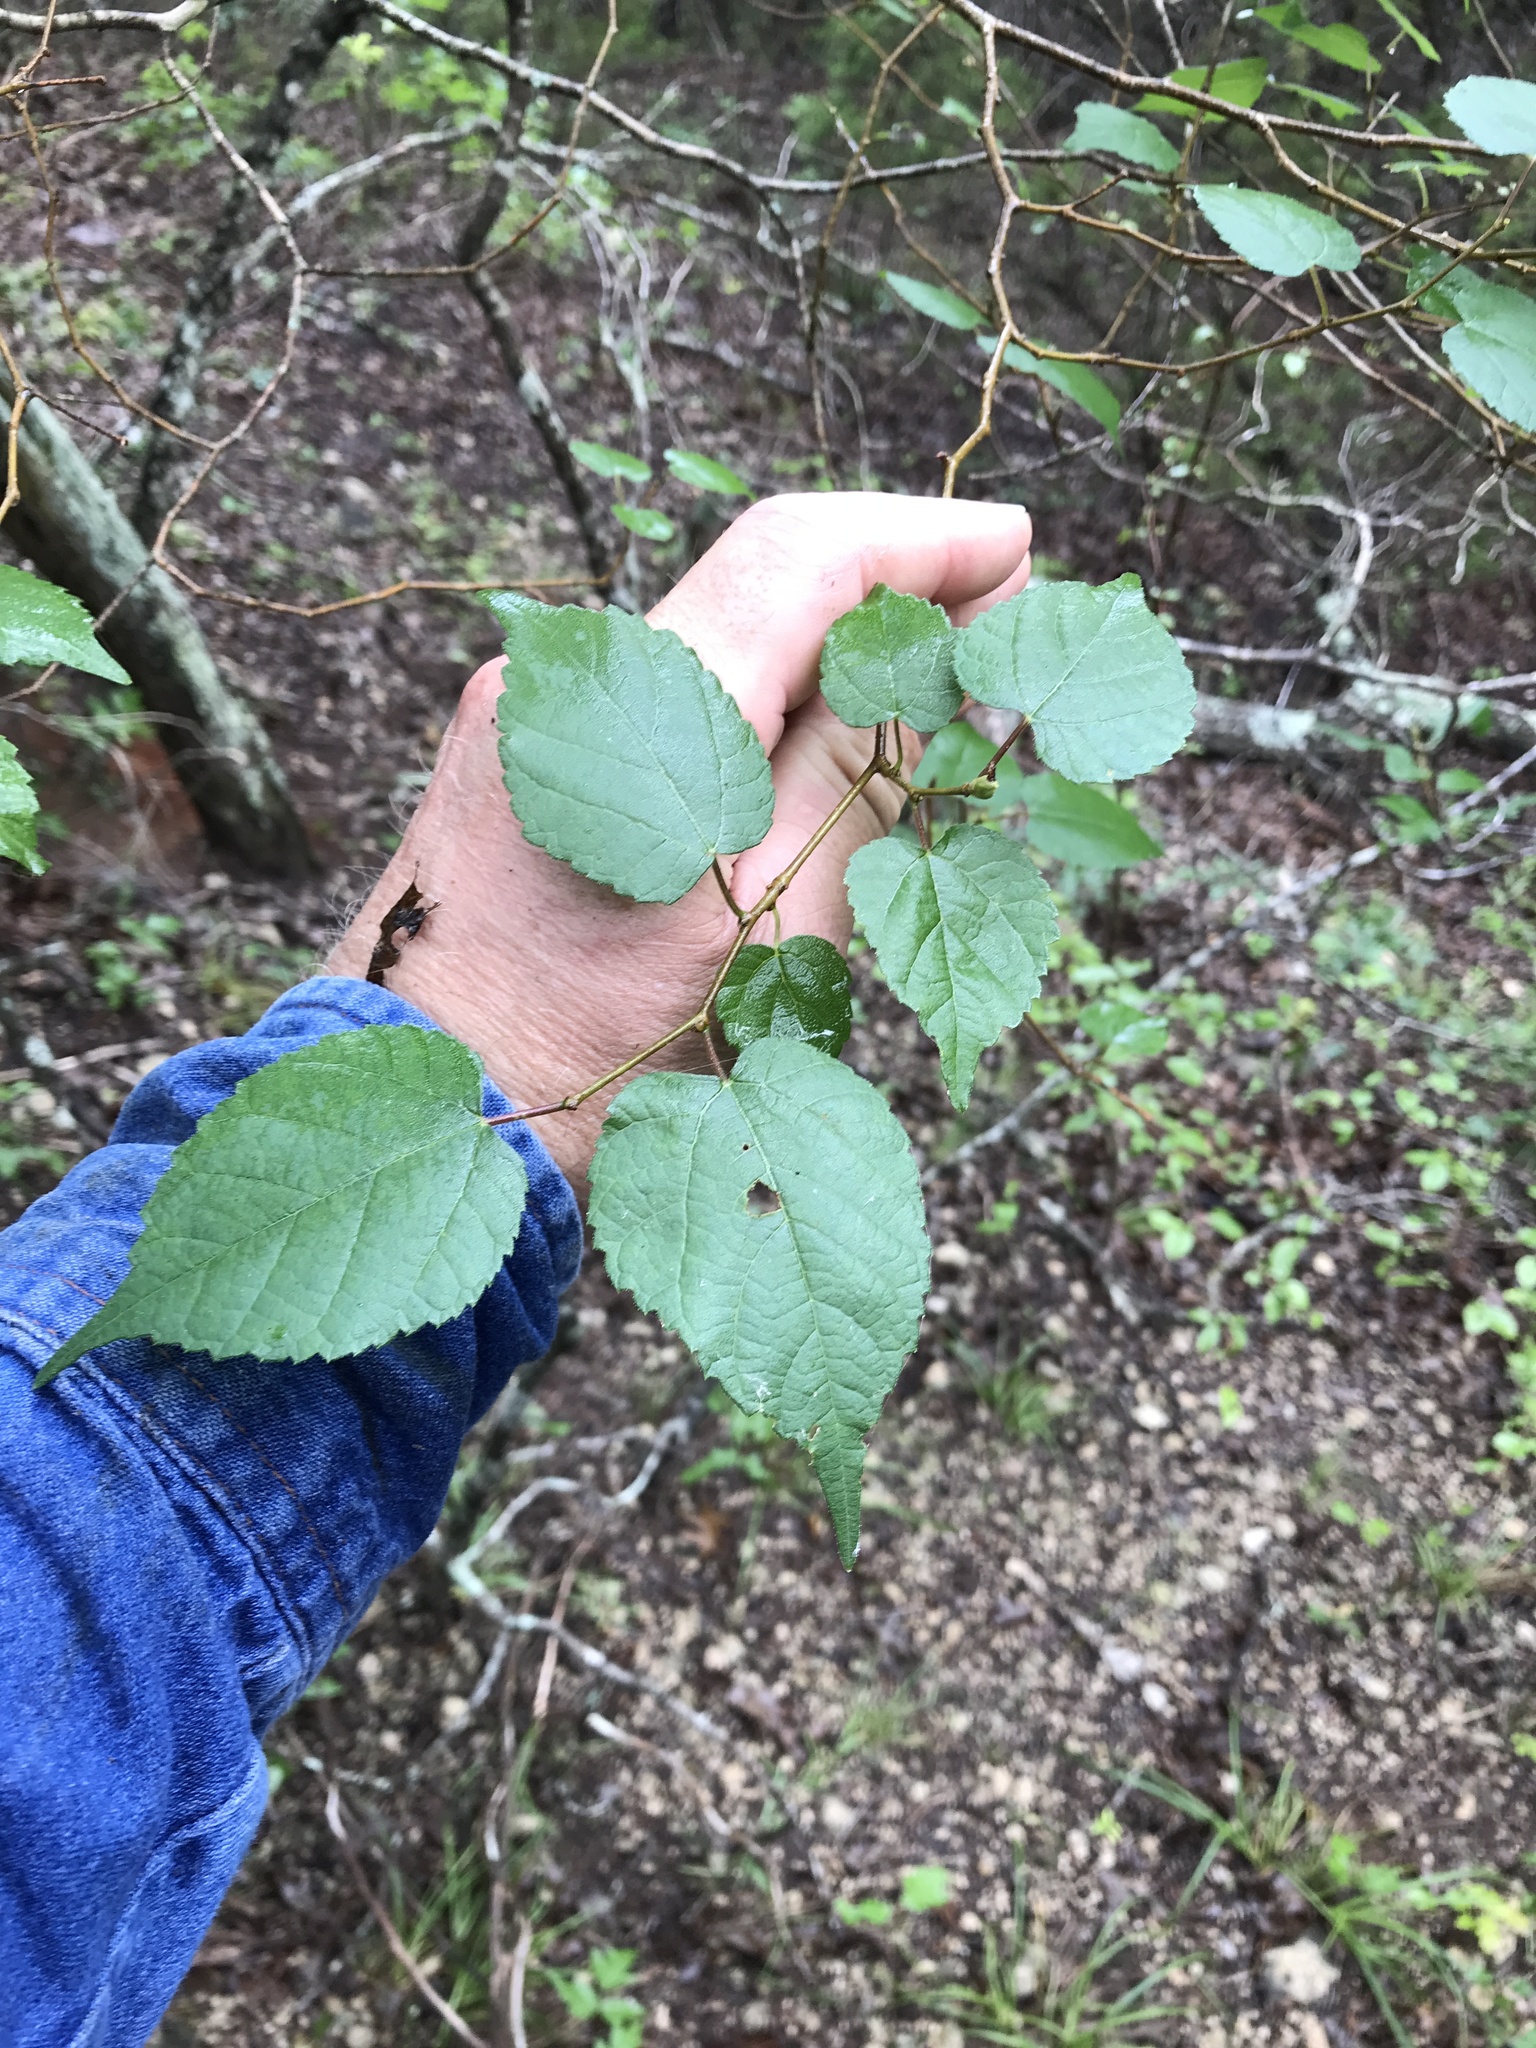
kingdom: Plantae
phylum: Tracheophyta
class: Magnoliopsida
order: Rosales
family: Moraceae
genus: Morus
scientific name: Morus microphylla
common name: Mexican mulberry
